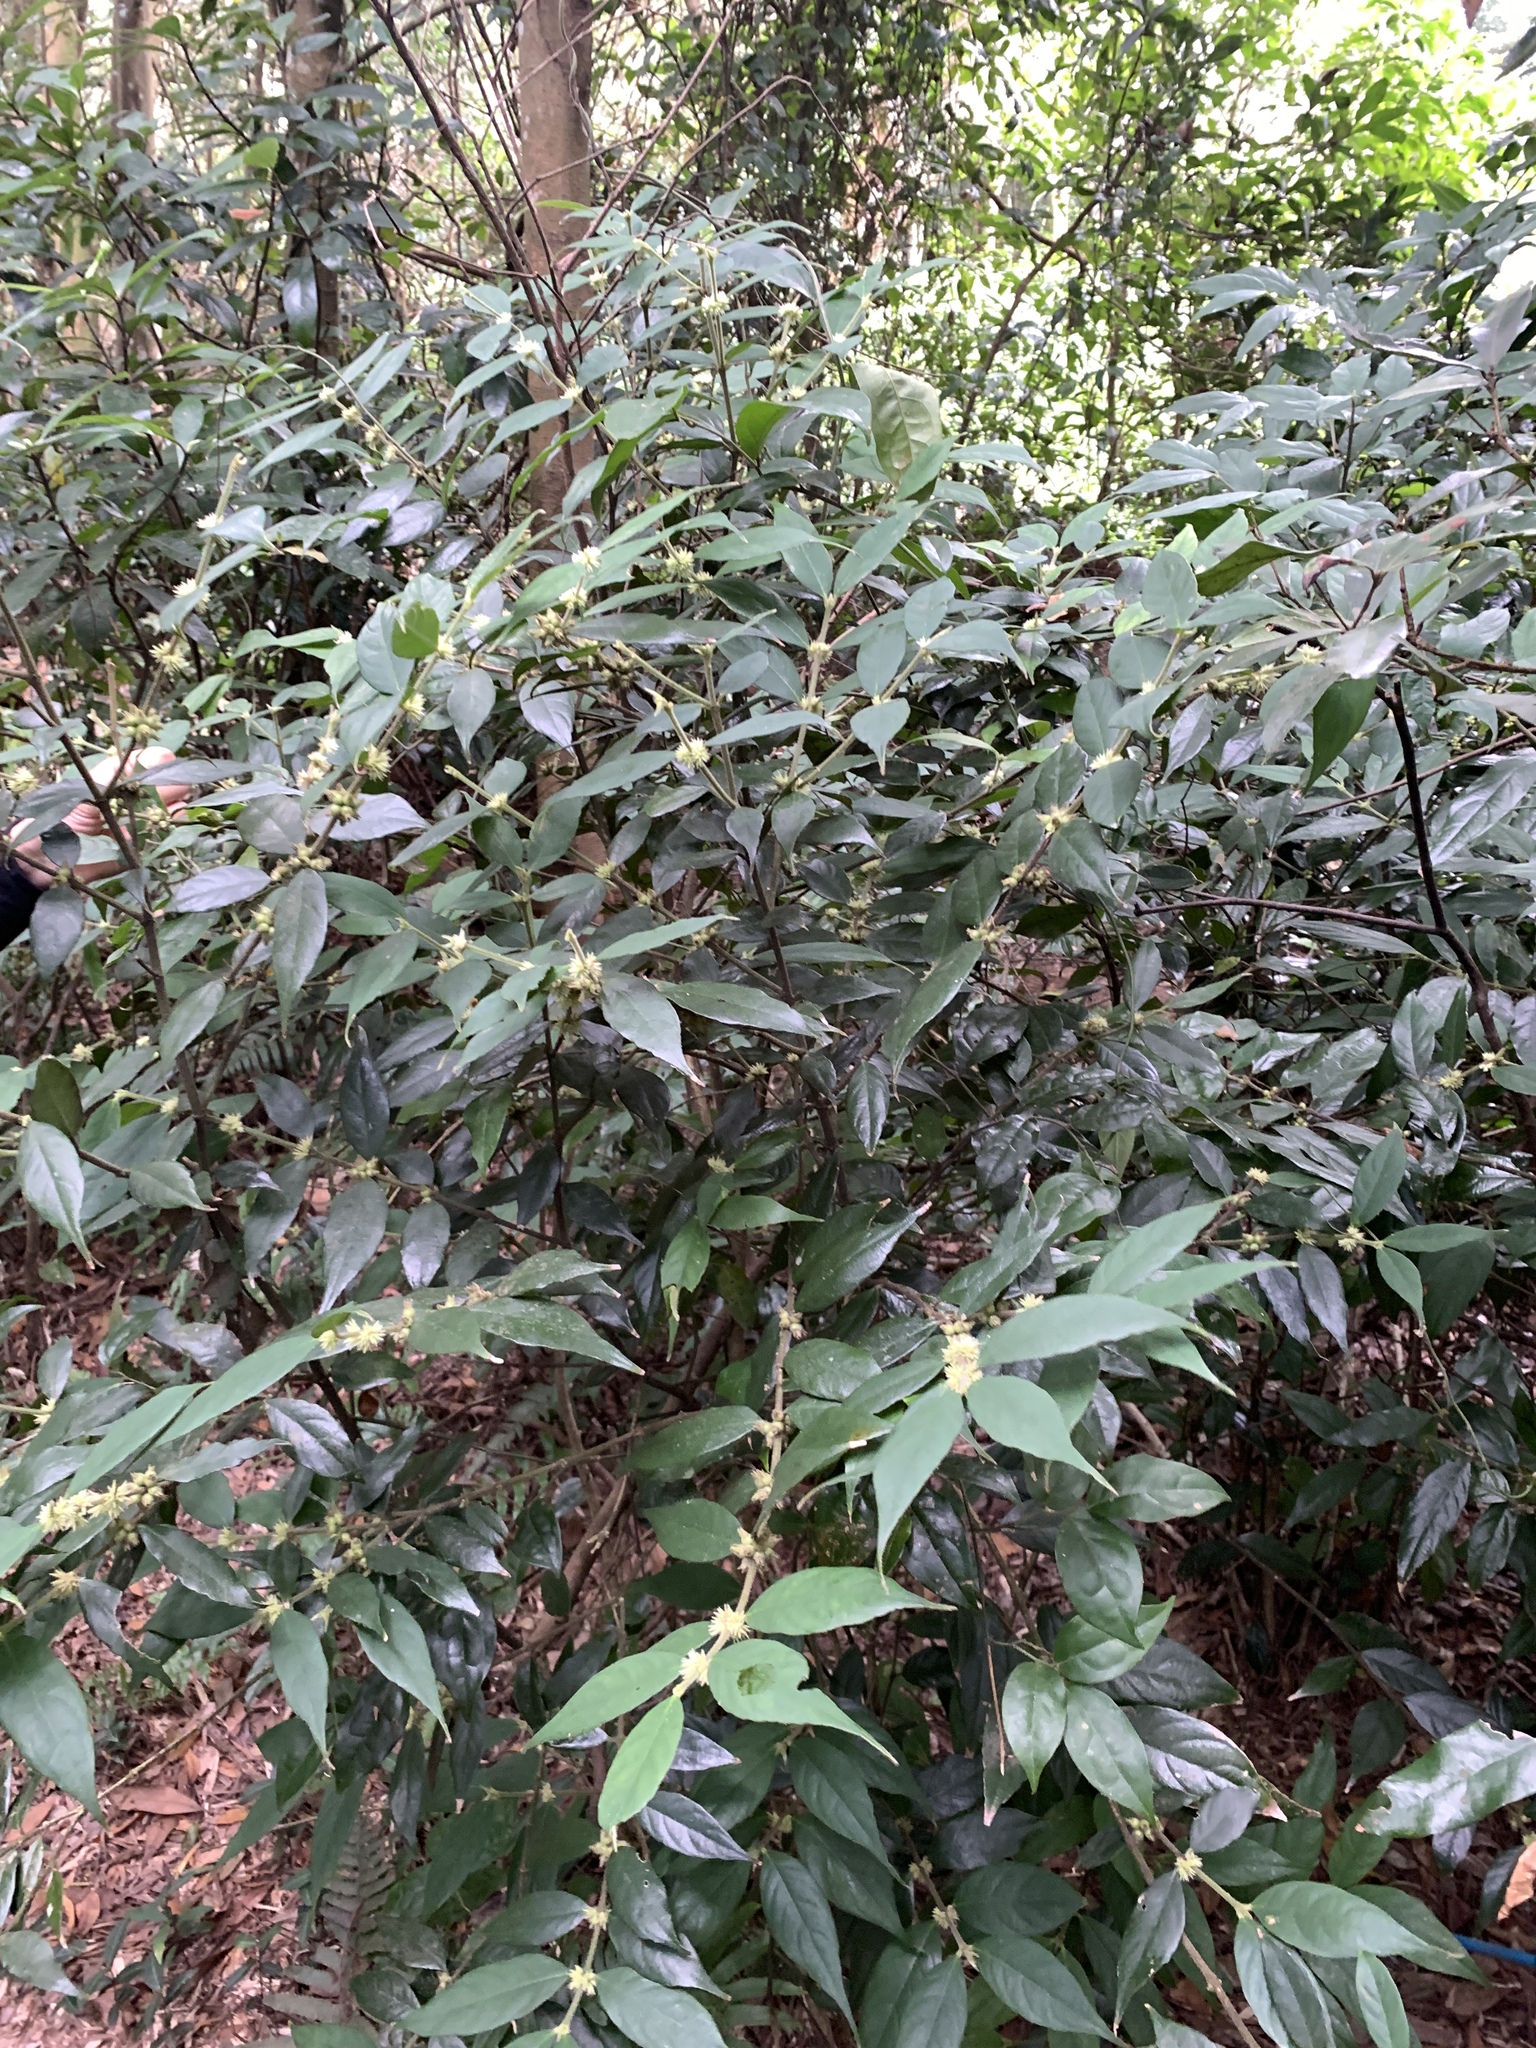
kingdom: Plantae
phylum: Tracheophyta
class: Magnoliopsida
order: Gentianales
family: Rubiaceae
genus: Lasianthus
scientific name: Lasianthus curtisii
